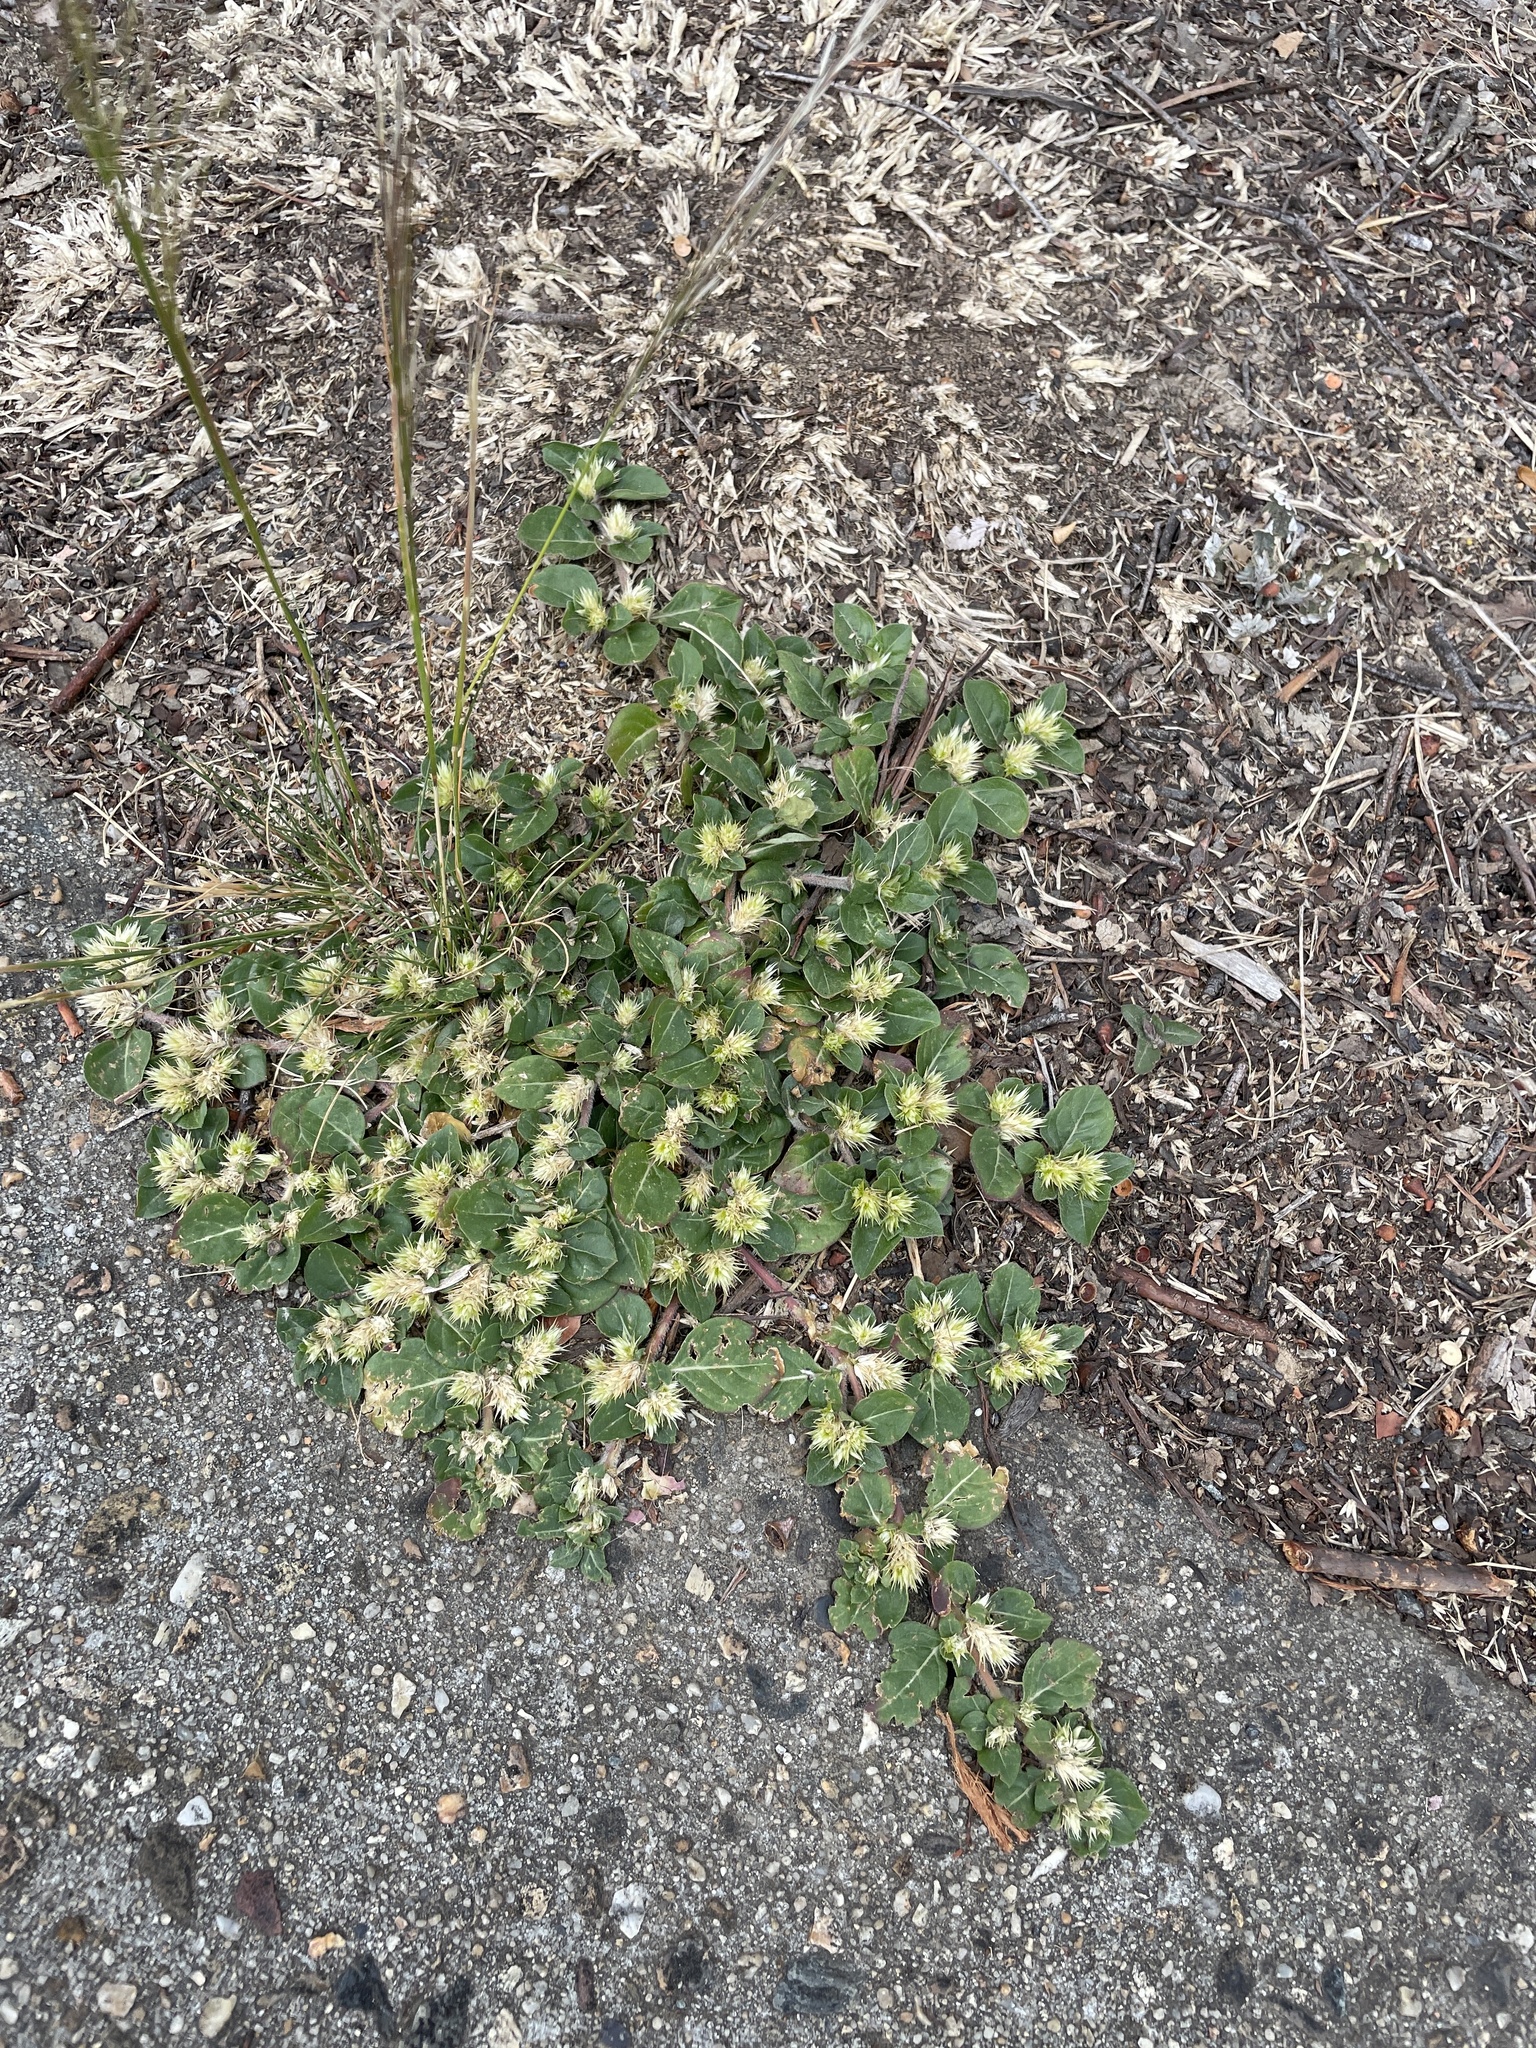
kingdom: Plantae
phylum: Tracheophyta
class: Magnoliopsida
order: Caryophyllales
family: Amaranthaceae
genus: Alternanthera
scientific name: Alternanthera pungens
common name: Khakiweed
